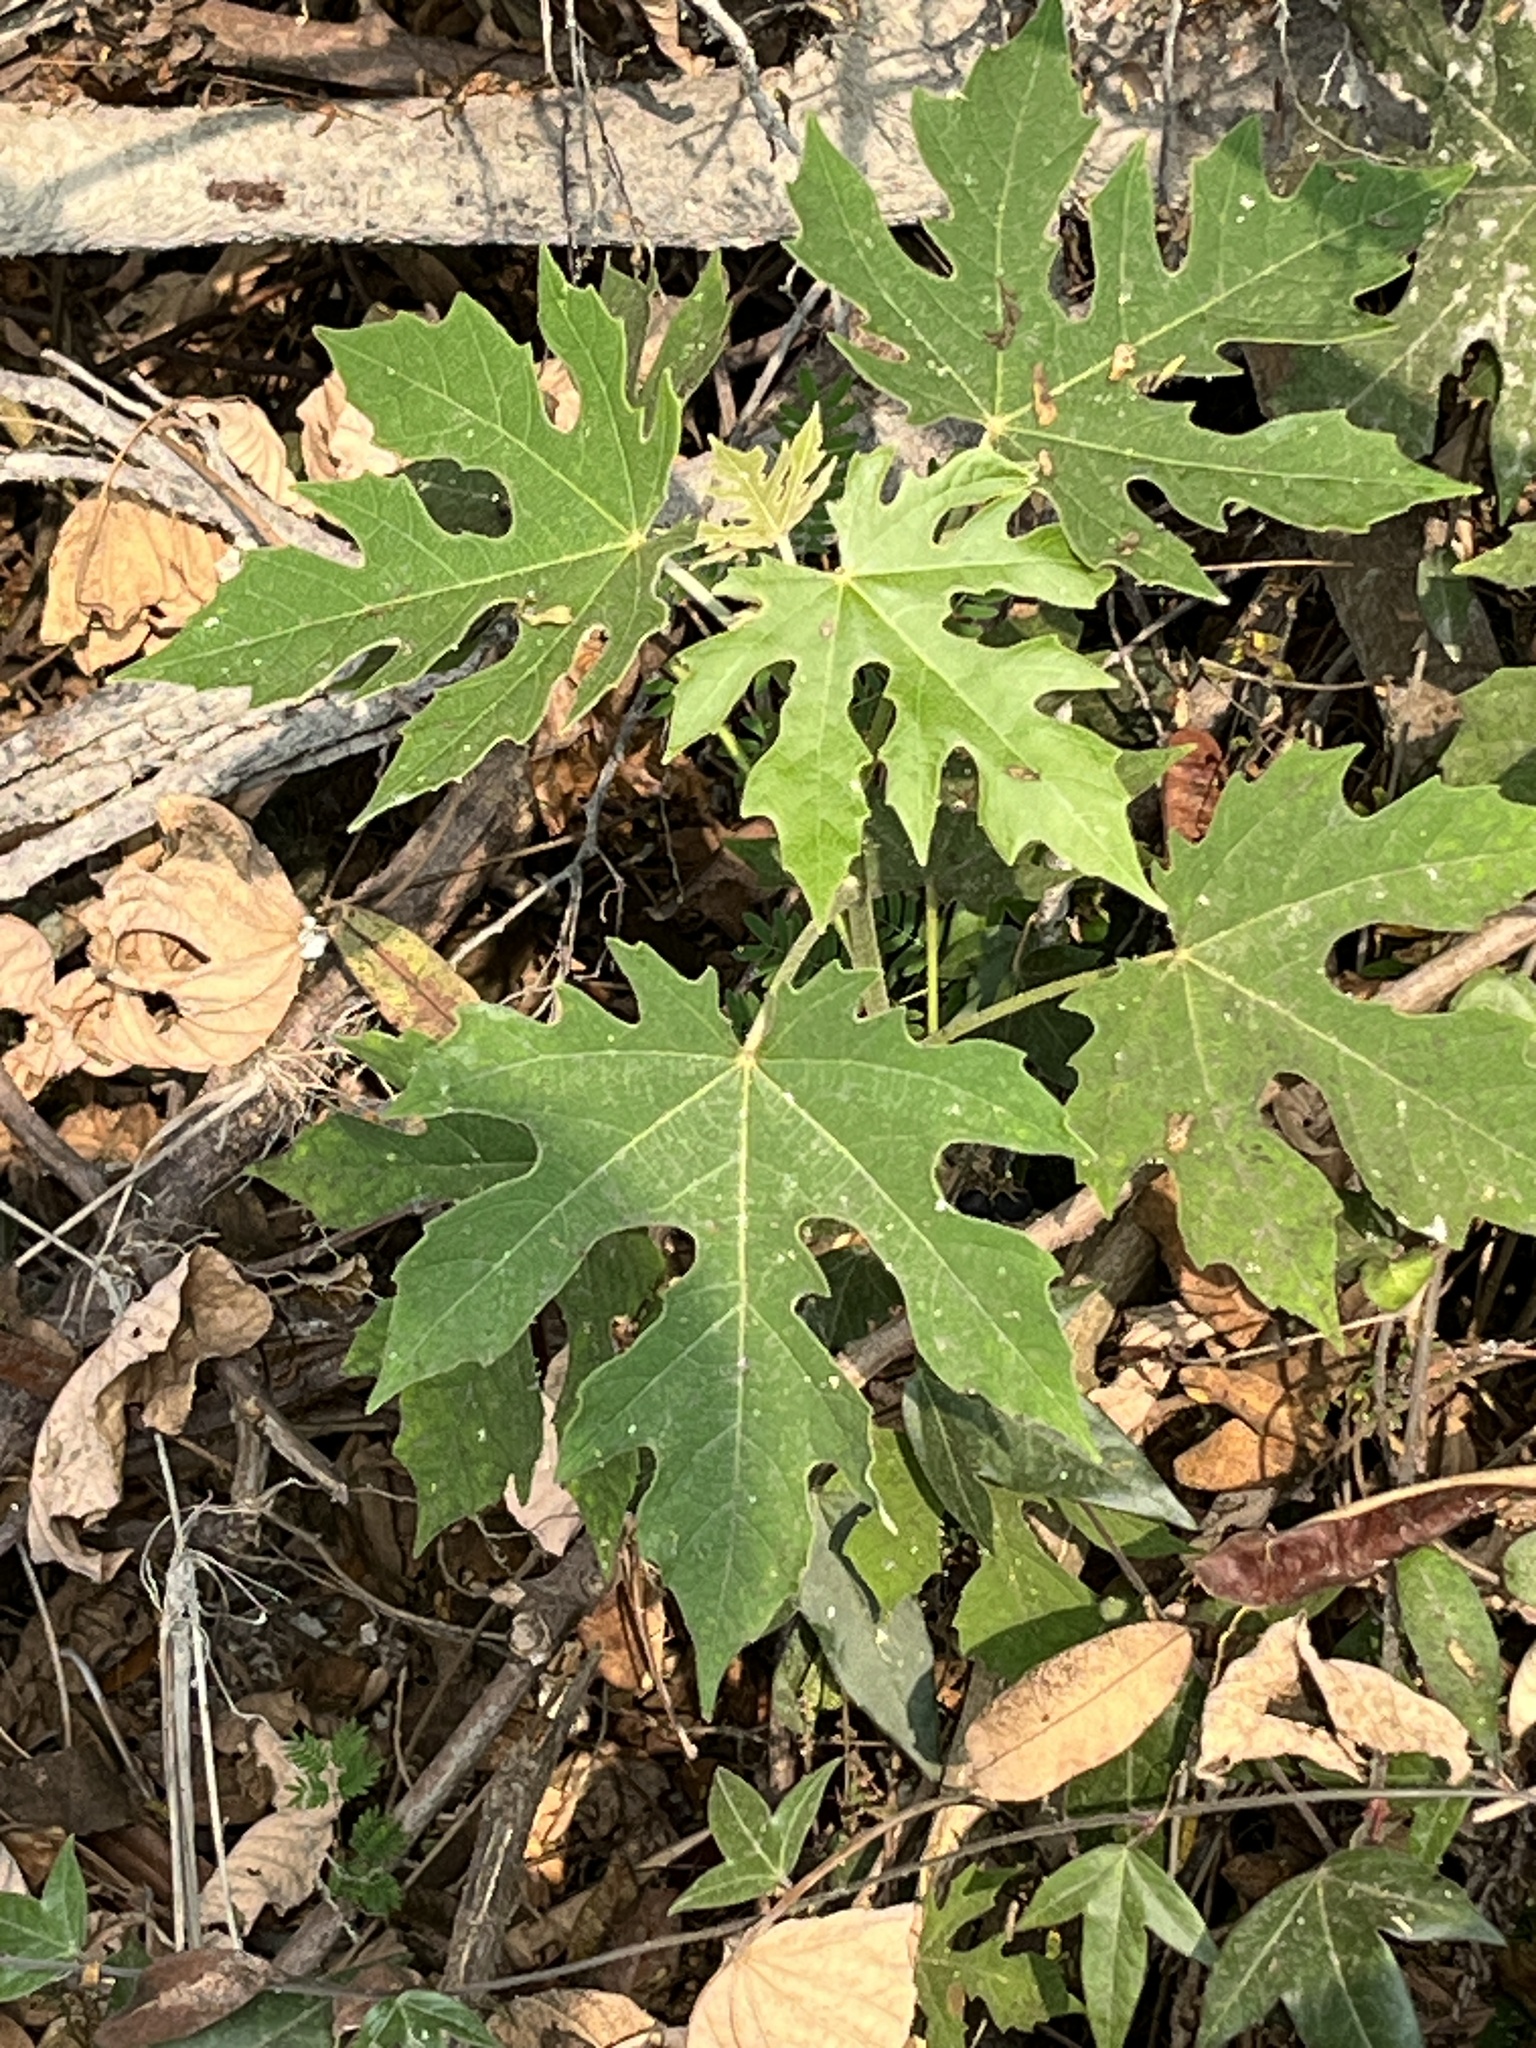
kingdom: Plantae
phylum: Tracheophyta
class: Magnoliopsida
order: Malpighiales
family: Euphorbiaceae
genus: Melanolepis
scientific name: Melanolepis multiglandulosa
